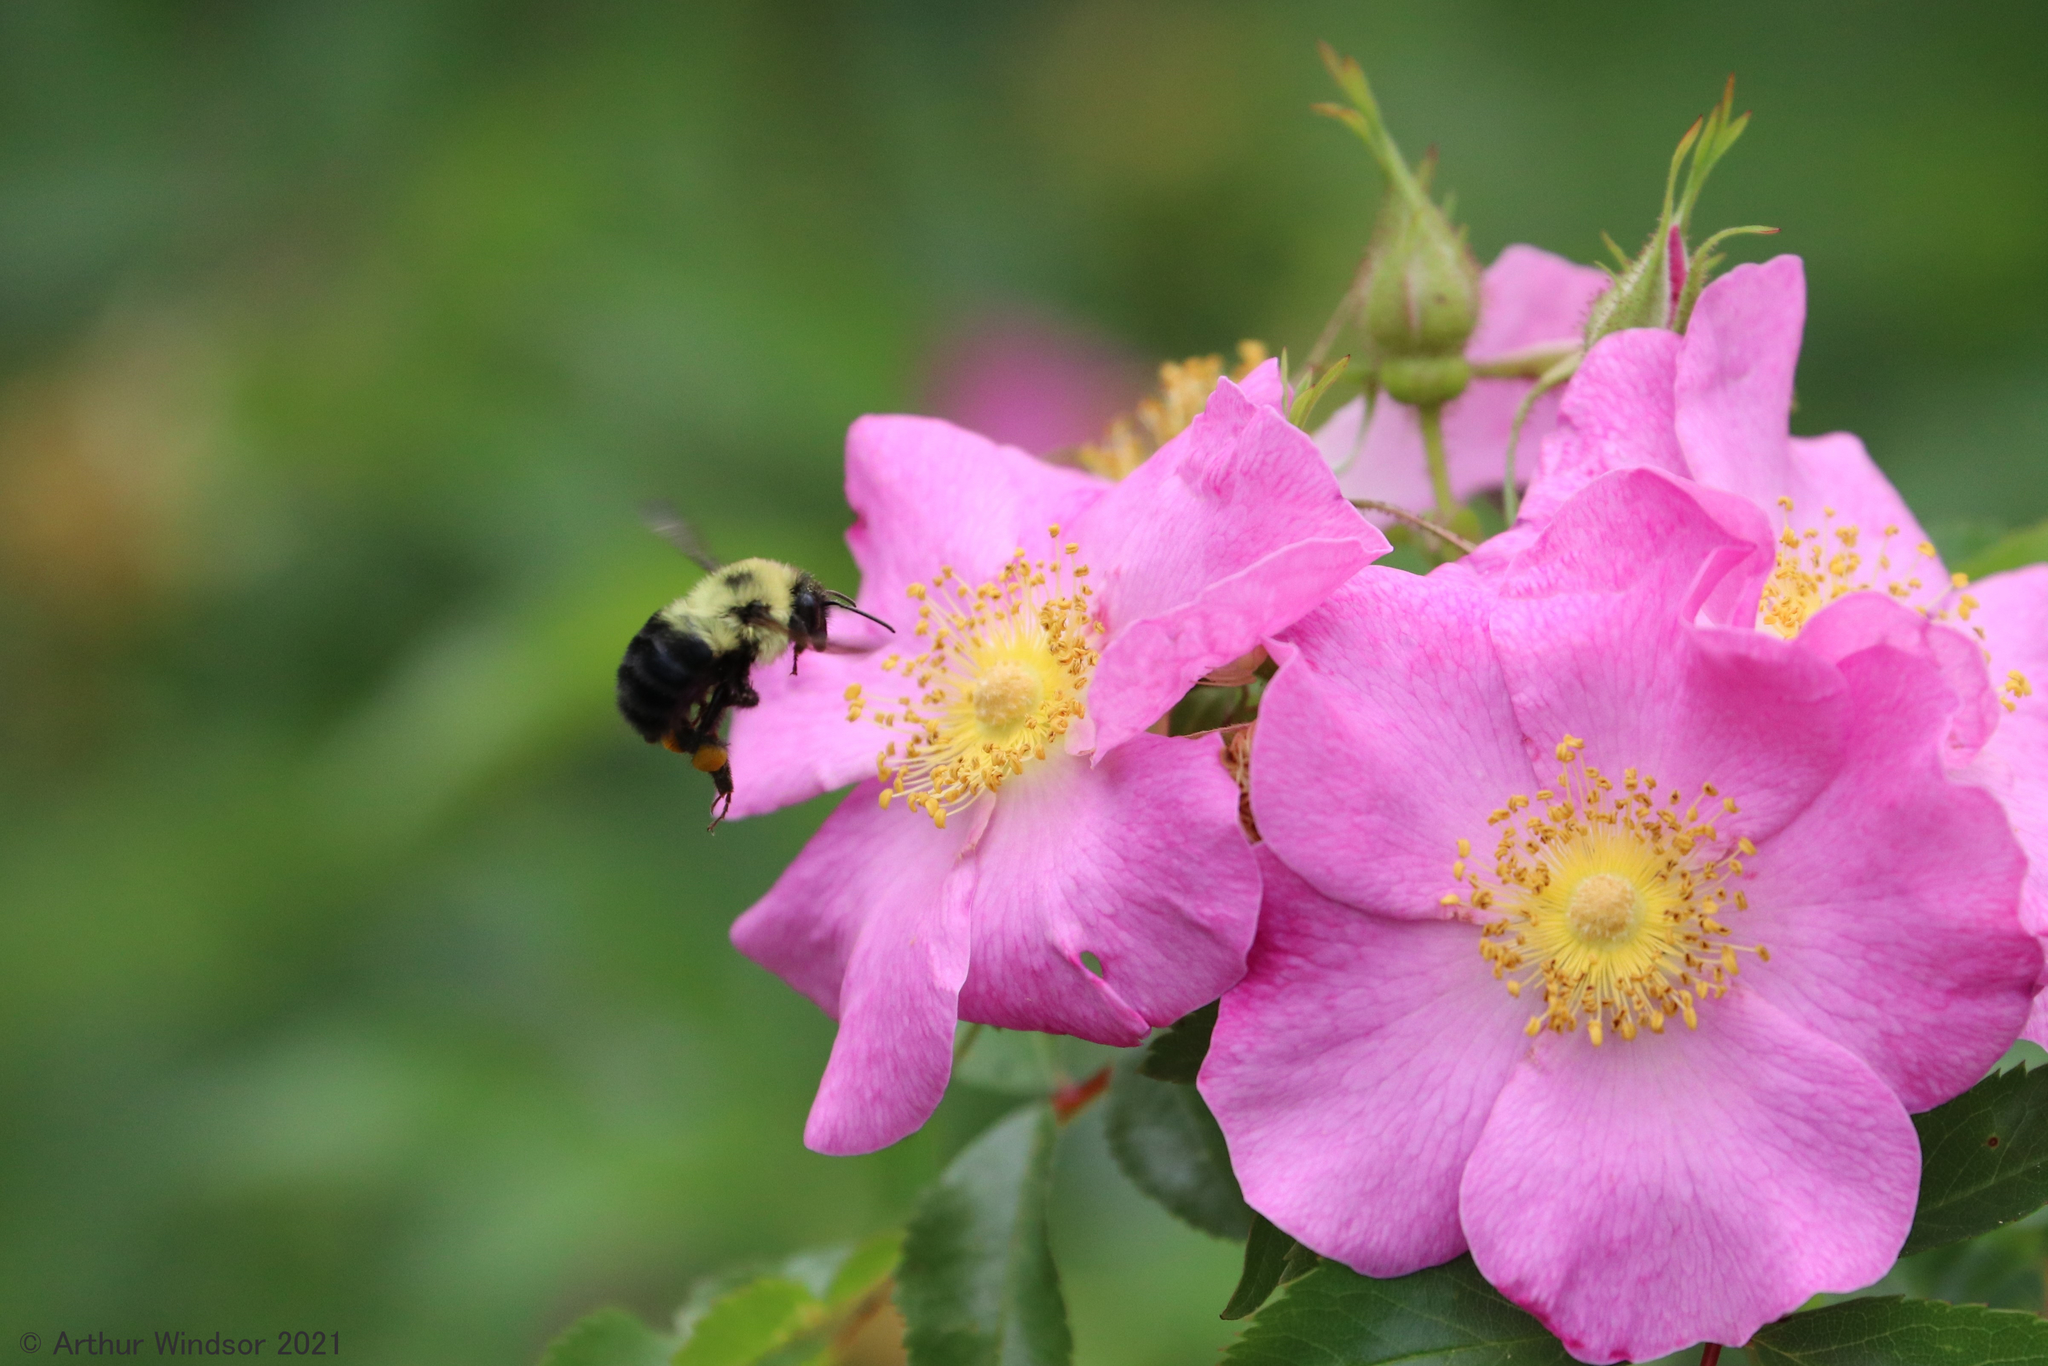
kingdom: Animalia
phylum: Arthropoda
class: Insecta
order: Hymenoptera
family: Apidae
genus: Bombus
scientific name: Bombus bimaculatus
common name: Two-spotted bumble bee
